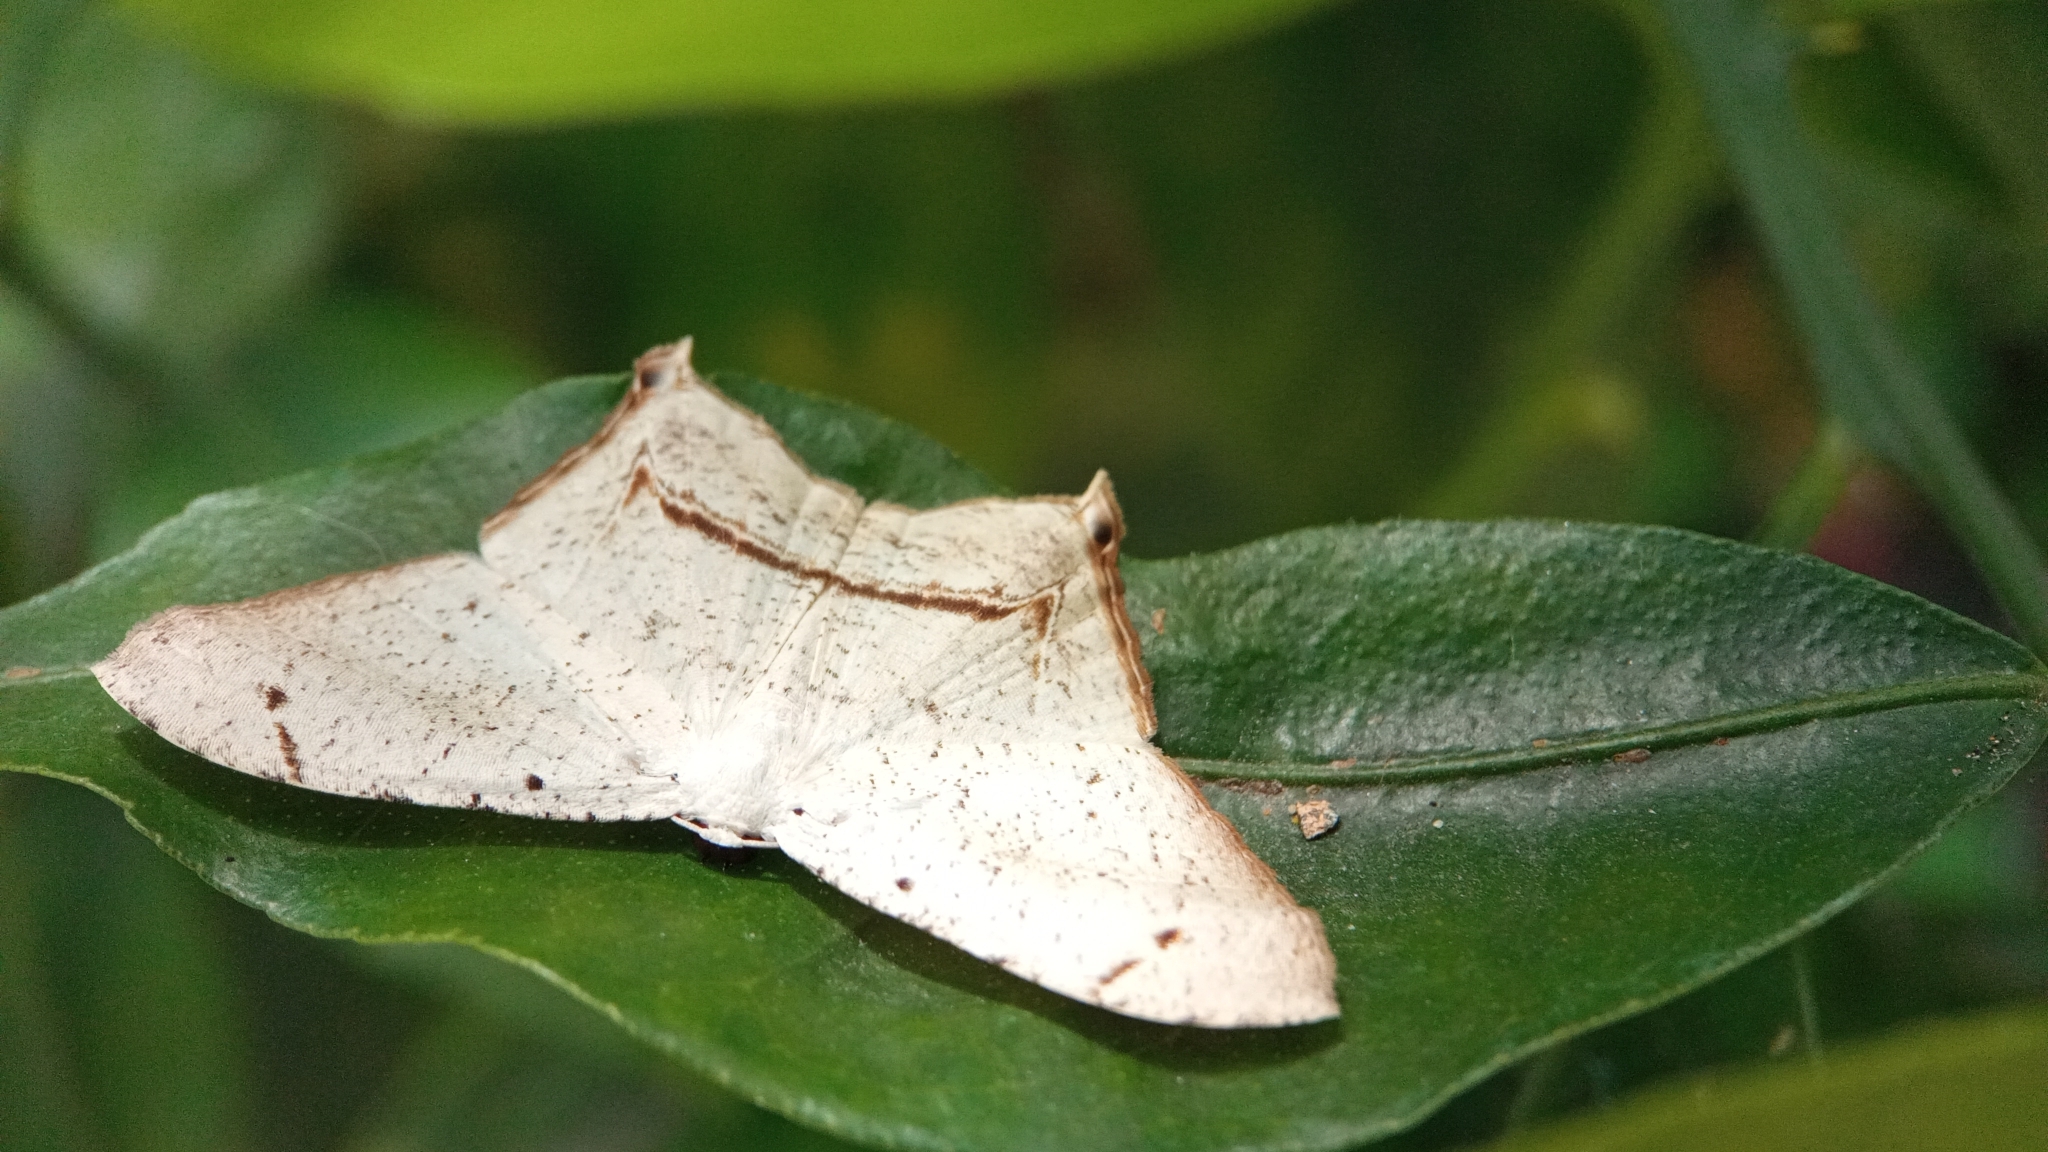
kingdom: Animalia
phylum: Arthropoda
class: Insecta
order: Lepidoptera
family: Uraniidae
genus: Thysanocraspeda
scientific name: Thysanocraspeda squamiplaga
